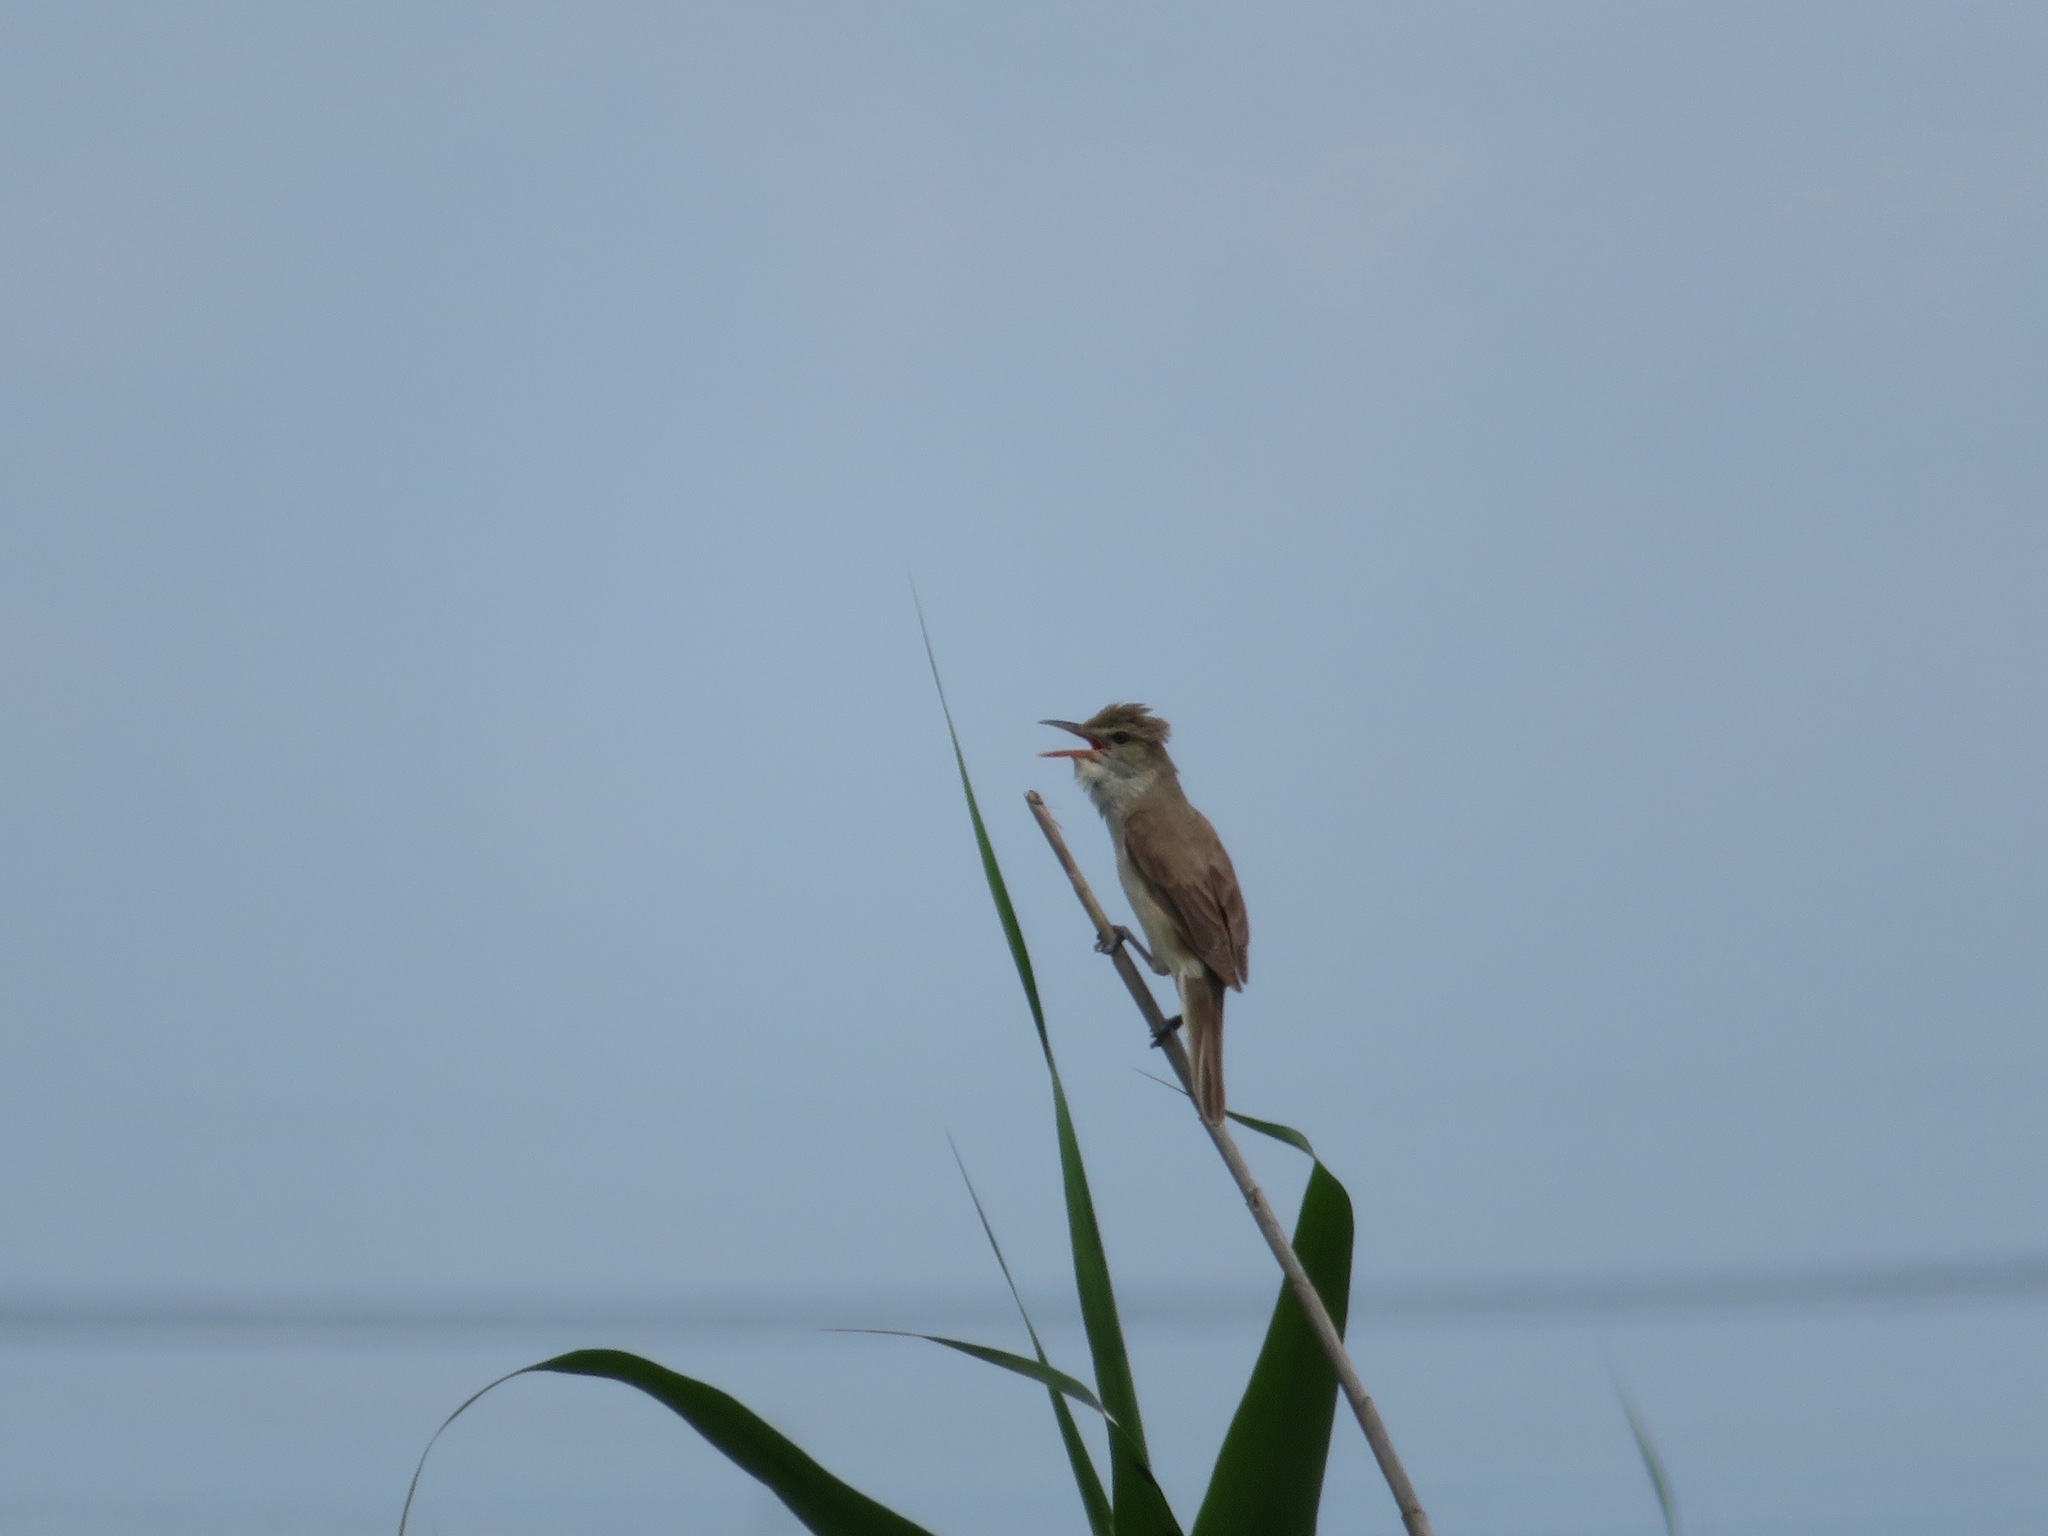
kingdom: Animalia
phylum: Chordata
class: Aves
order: Passeriformes
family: Acrocephalidae
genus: Acrocephalus
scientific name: Acrocephalus orientalis
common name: Oriental reed warbler
